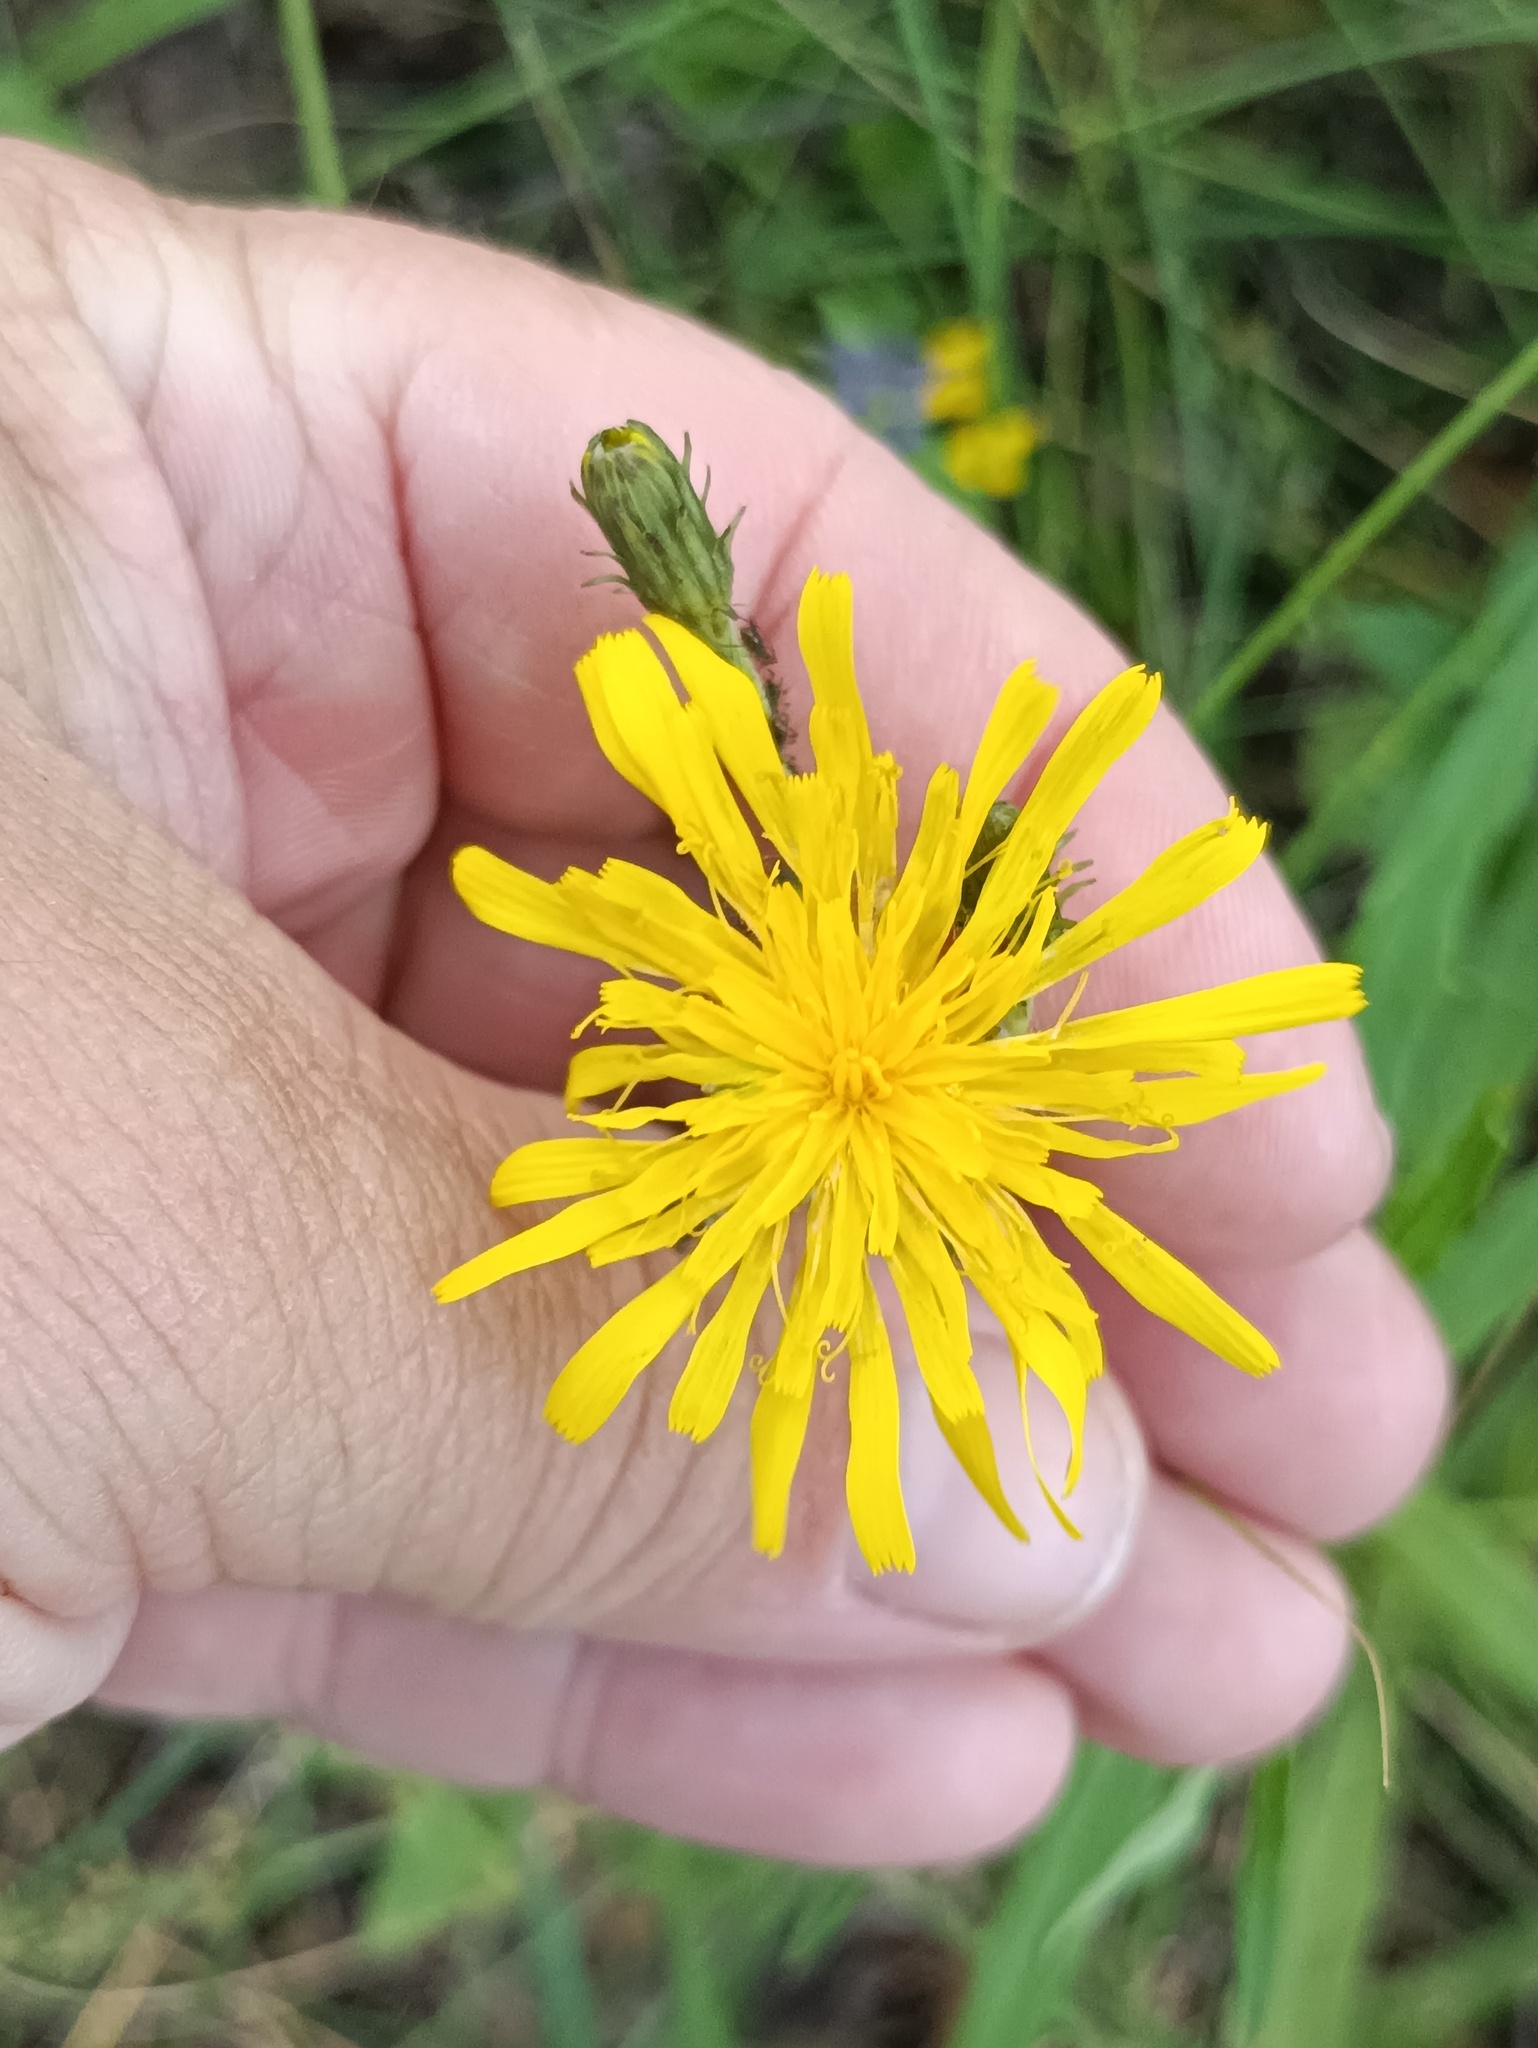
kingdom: Plantae
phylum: Tracheophyta
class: Magnoliopsida
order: Asterales
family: Asteraceae
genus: Hieracium
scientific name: Hieracium umbellatum
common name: Northern hawkweed
